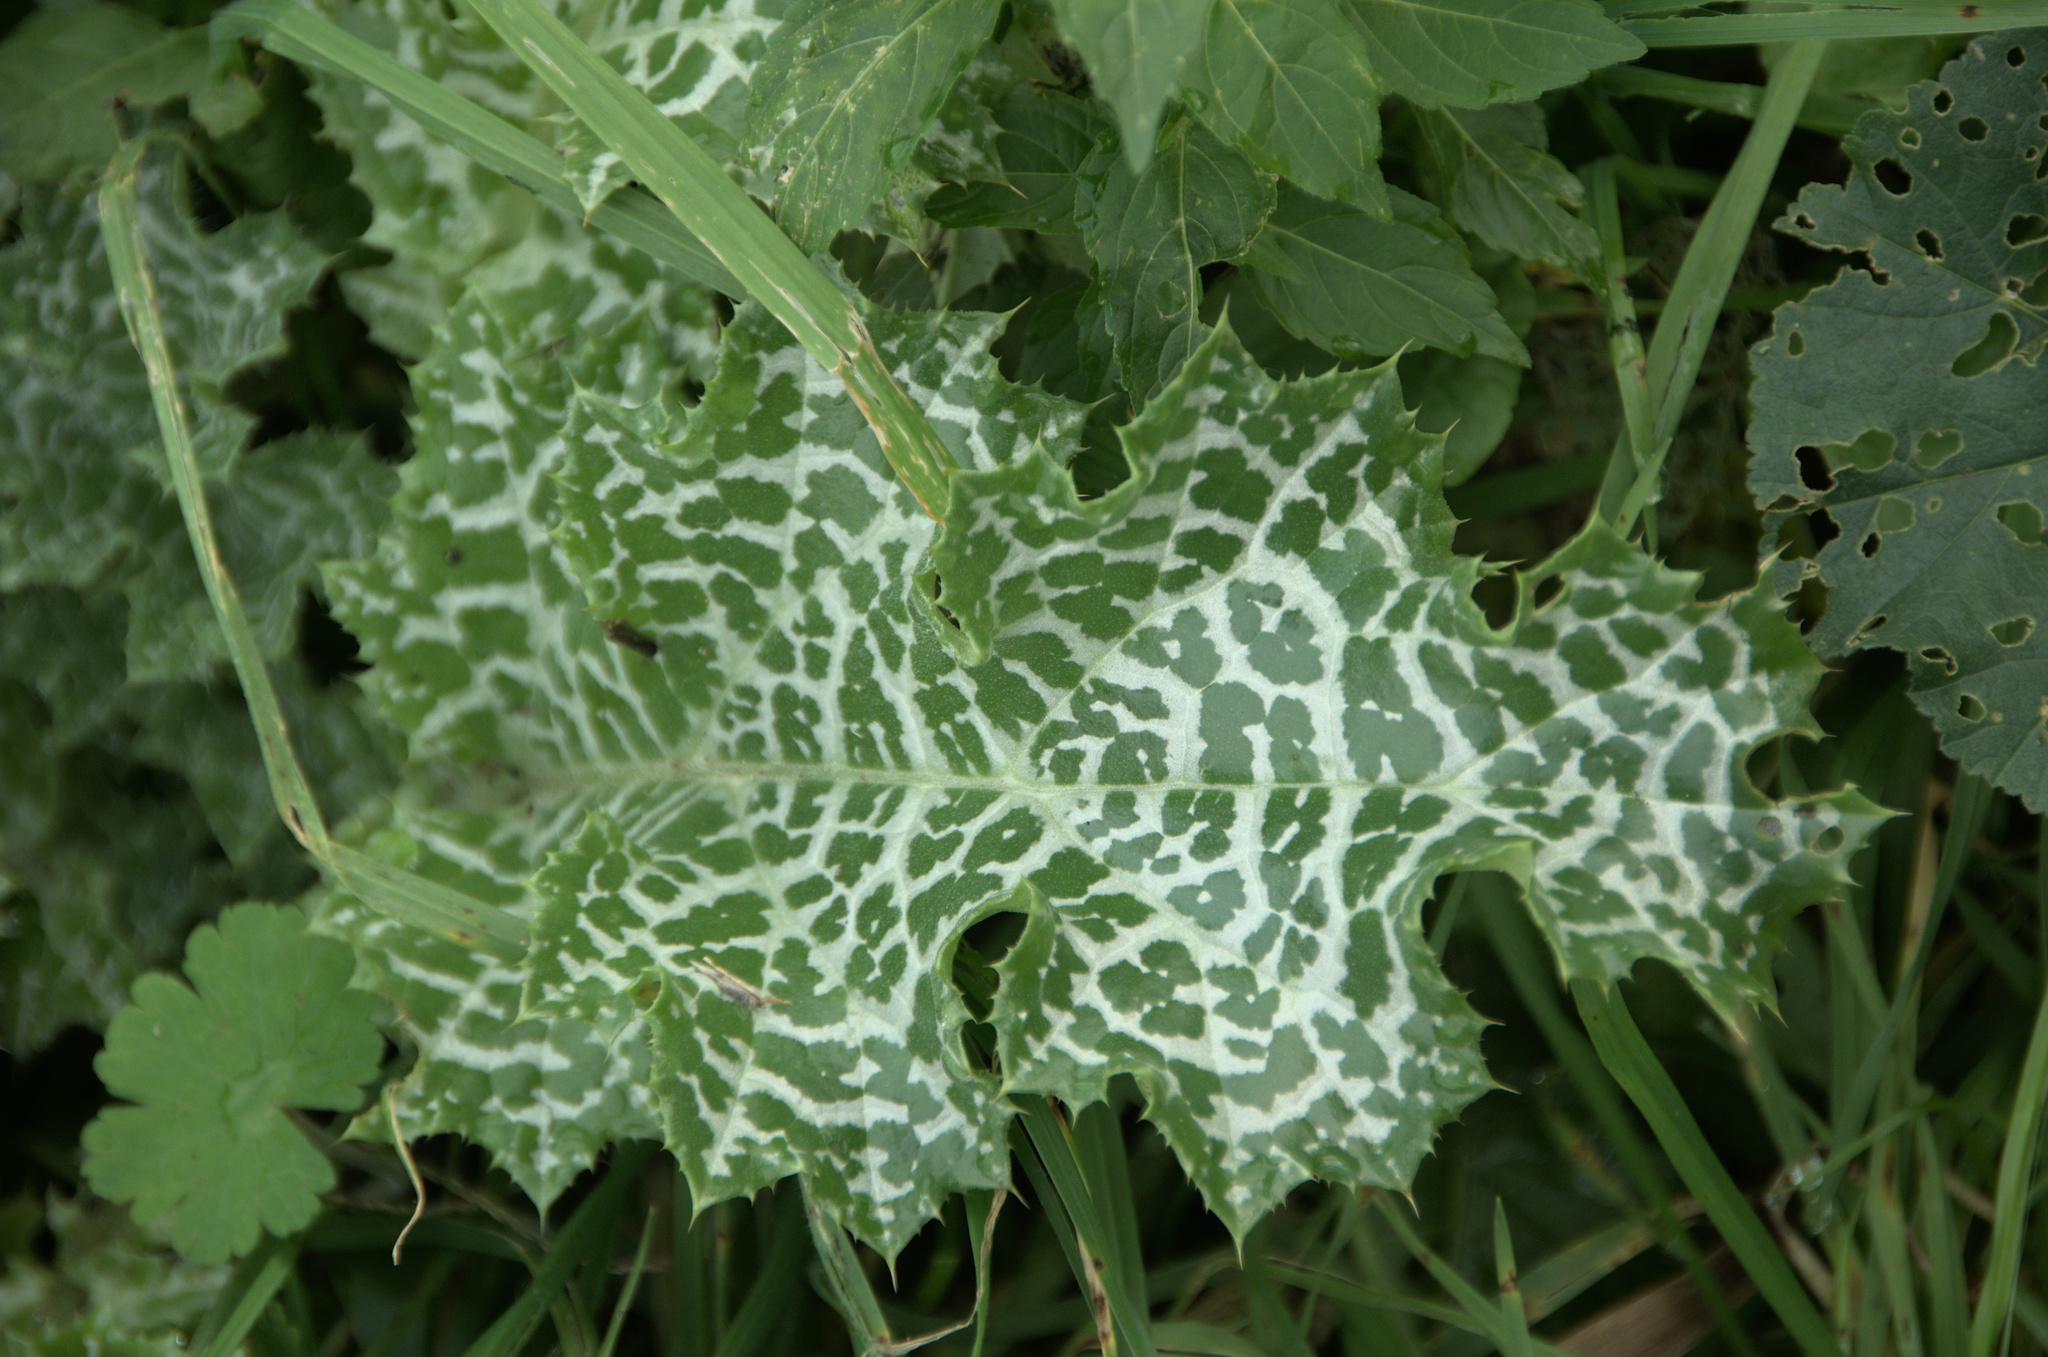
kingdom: Plantae
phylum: Tracheophyta
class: Magnoliopsida
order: Asterales
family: Asteraceae
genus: Silybum
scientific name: Silybum marianum
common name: Milk thistle
